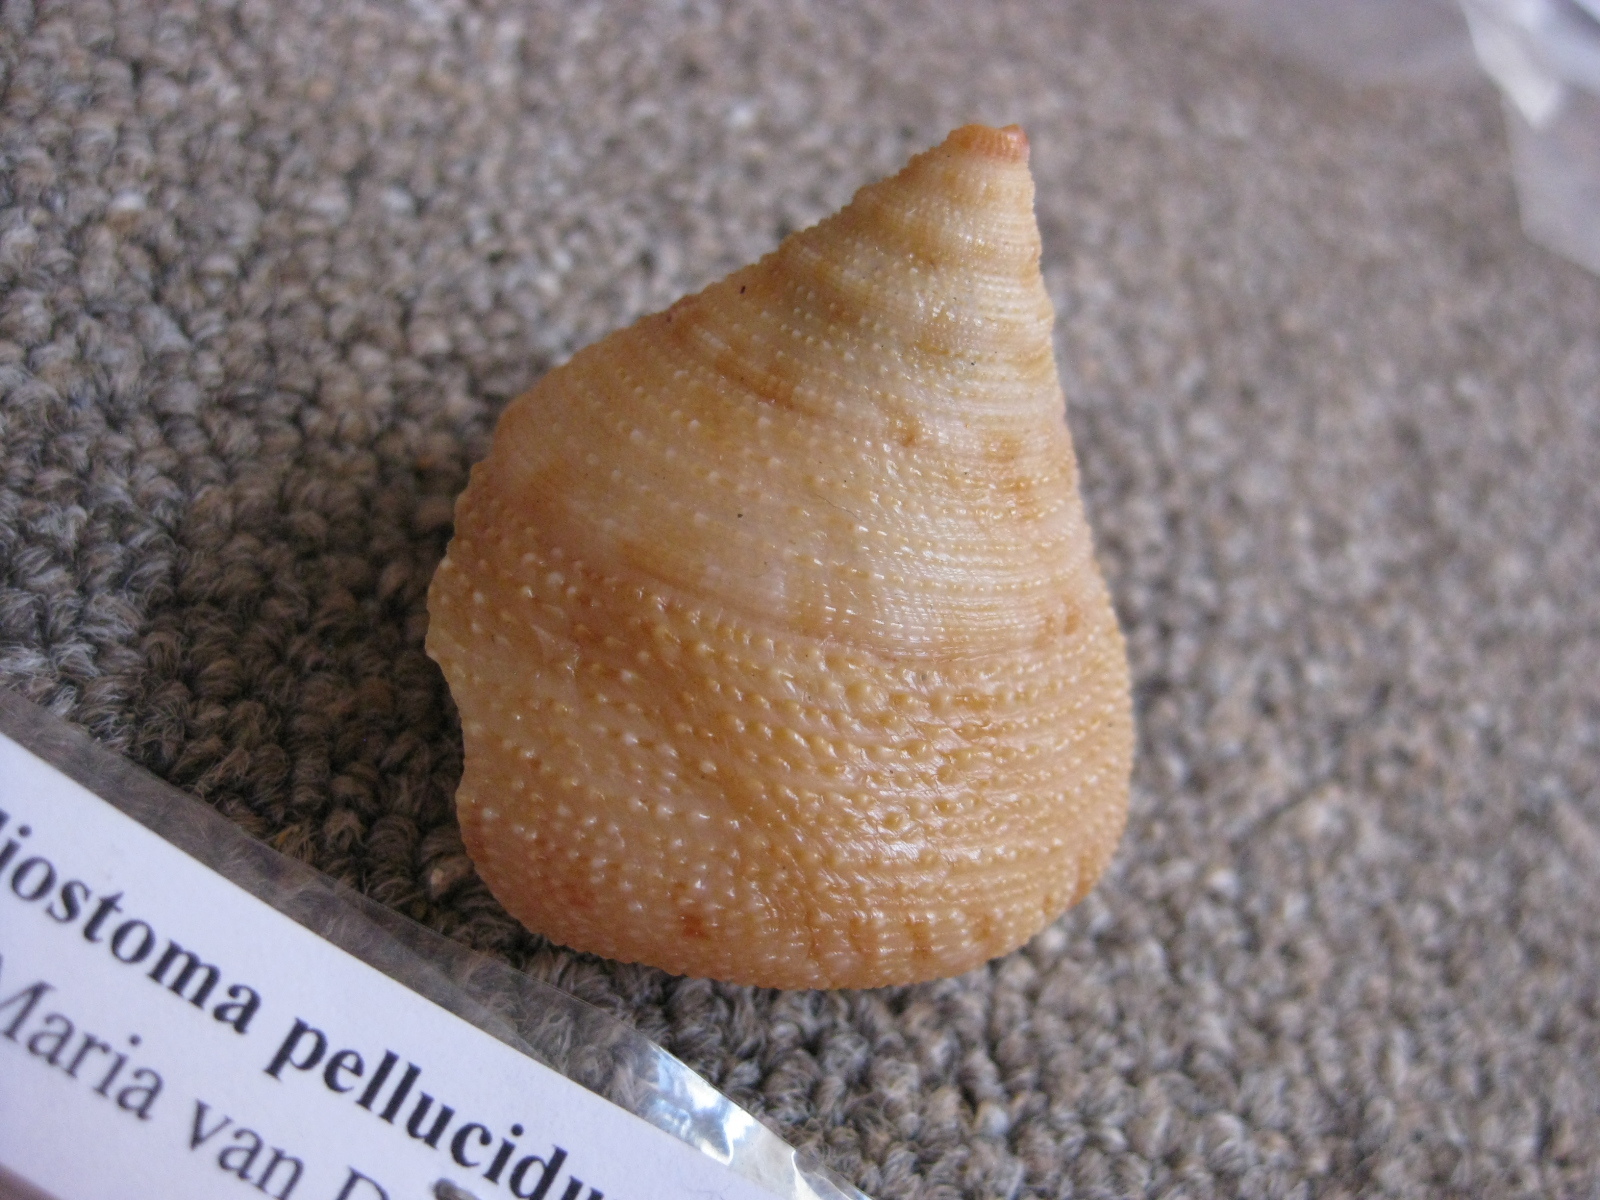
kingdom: Animalia
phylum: Mollusca
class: Gastropoda
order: Trochida
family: Calliostomatidae
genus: Maurea
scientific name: Maurea pellucida
